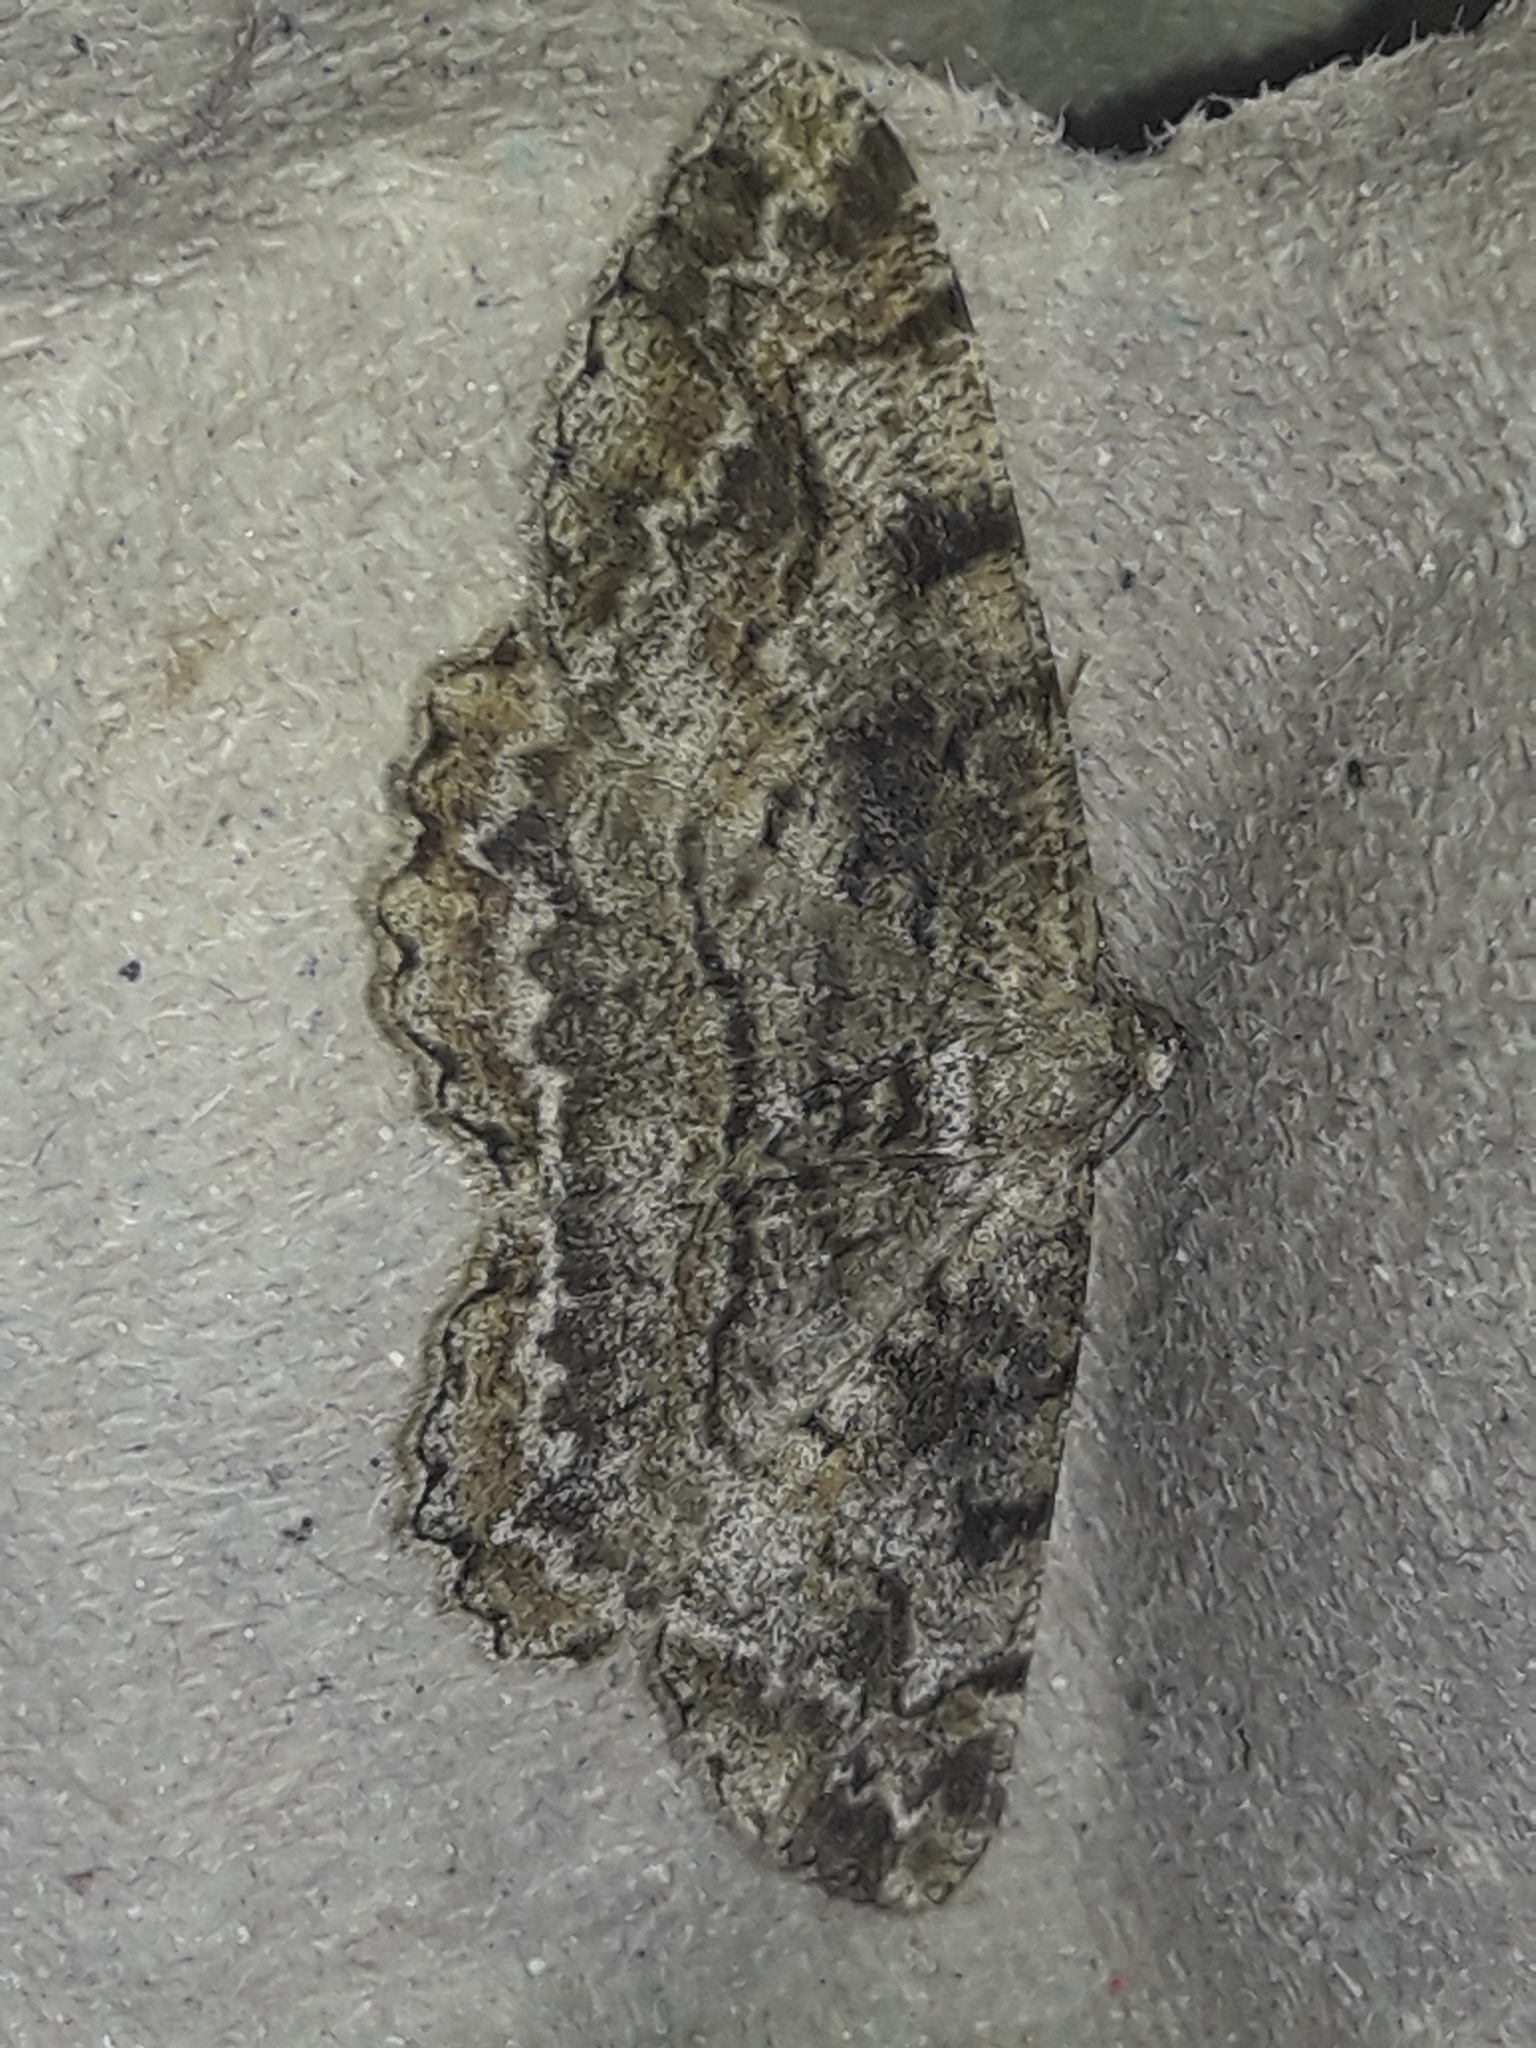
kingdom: Animalia
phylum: Arthropoda
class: Insecta
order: Lepidoptera
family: Geometridae
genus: Alcis
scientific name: Alcis repandata
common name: Mottled beauty
